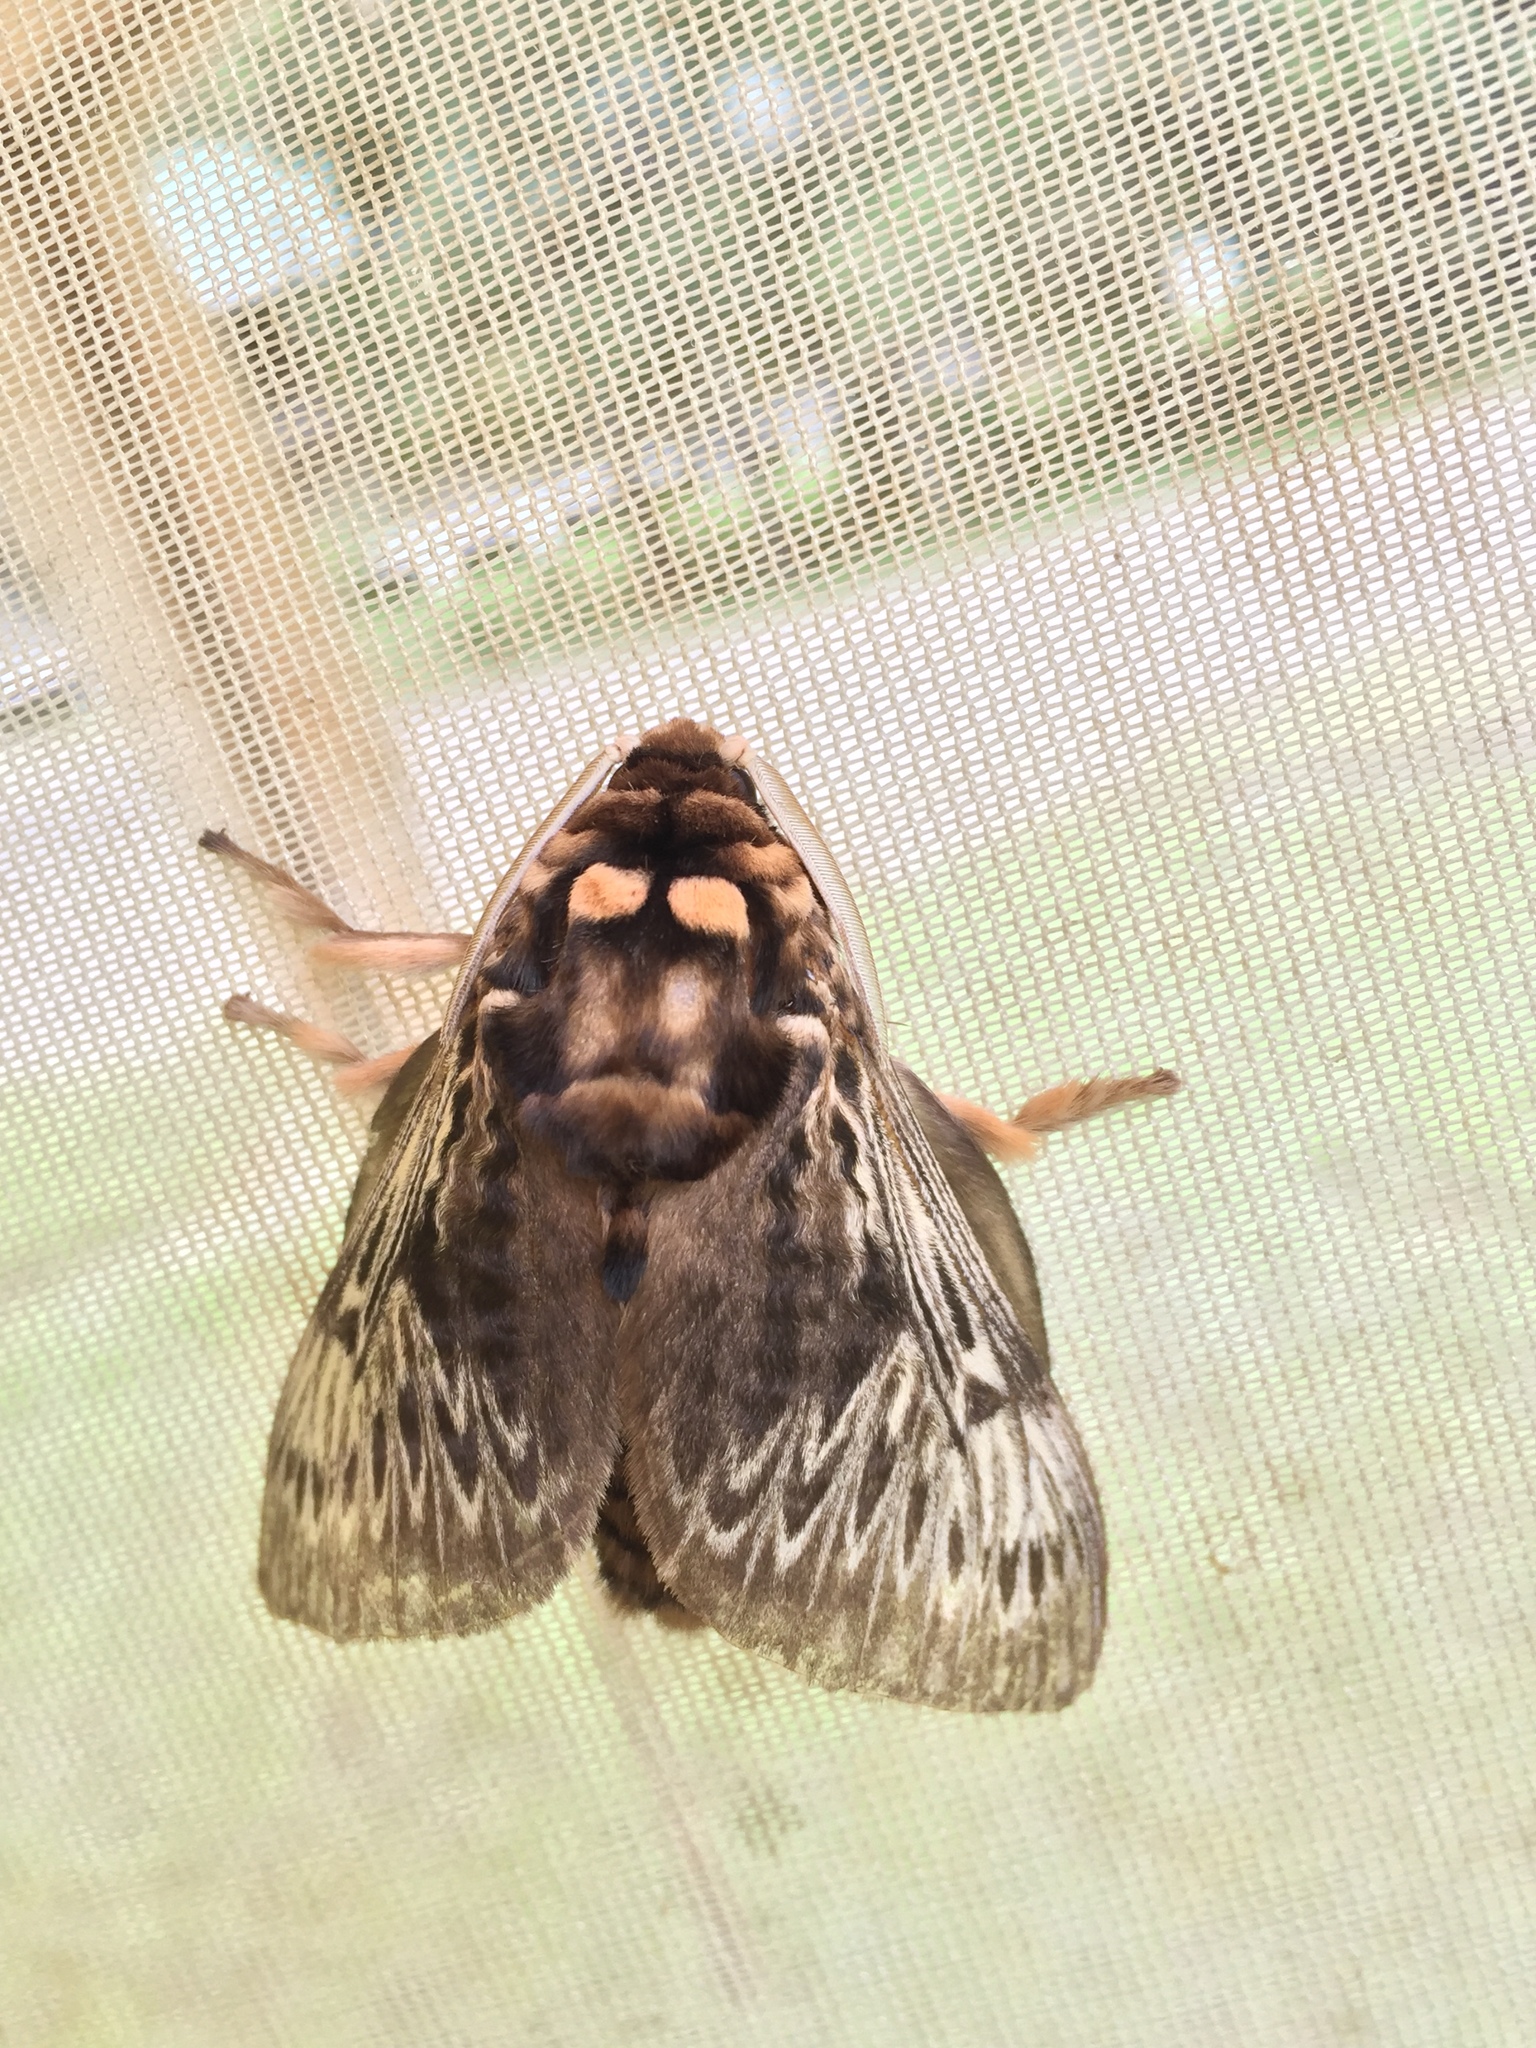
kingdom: Animalia
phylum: Arthropoda
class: Insecta
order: Lepidoptera
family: Megalopygidae
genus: Podalia
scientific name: Podalia fuscescens
